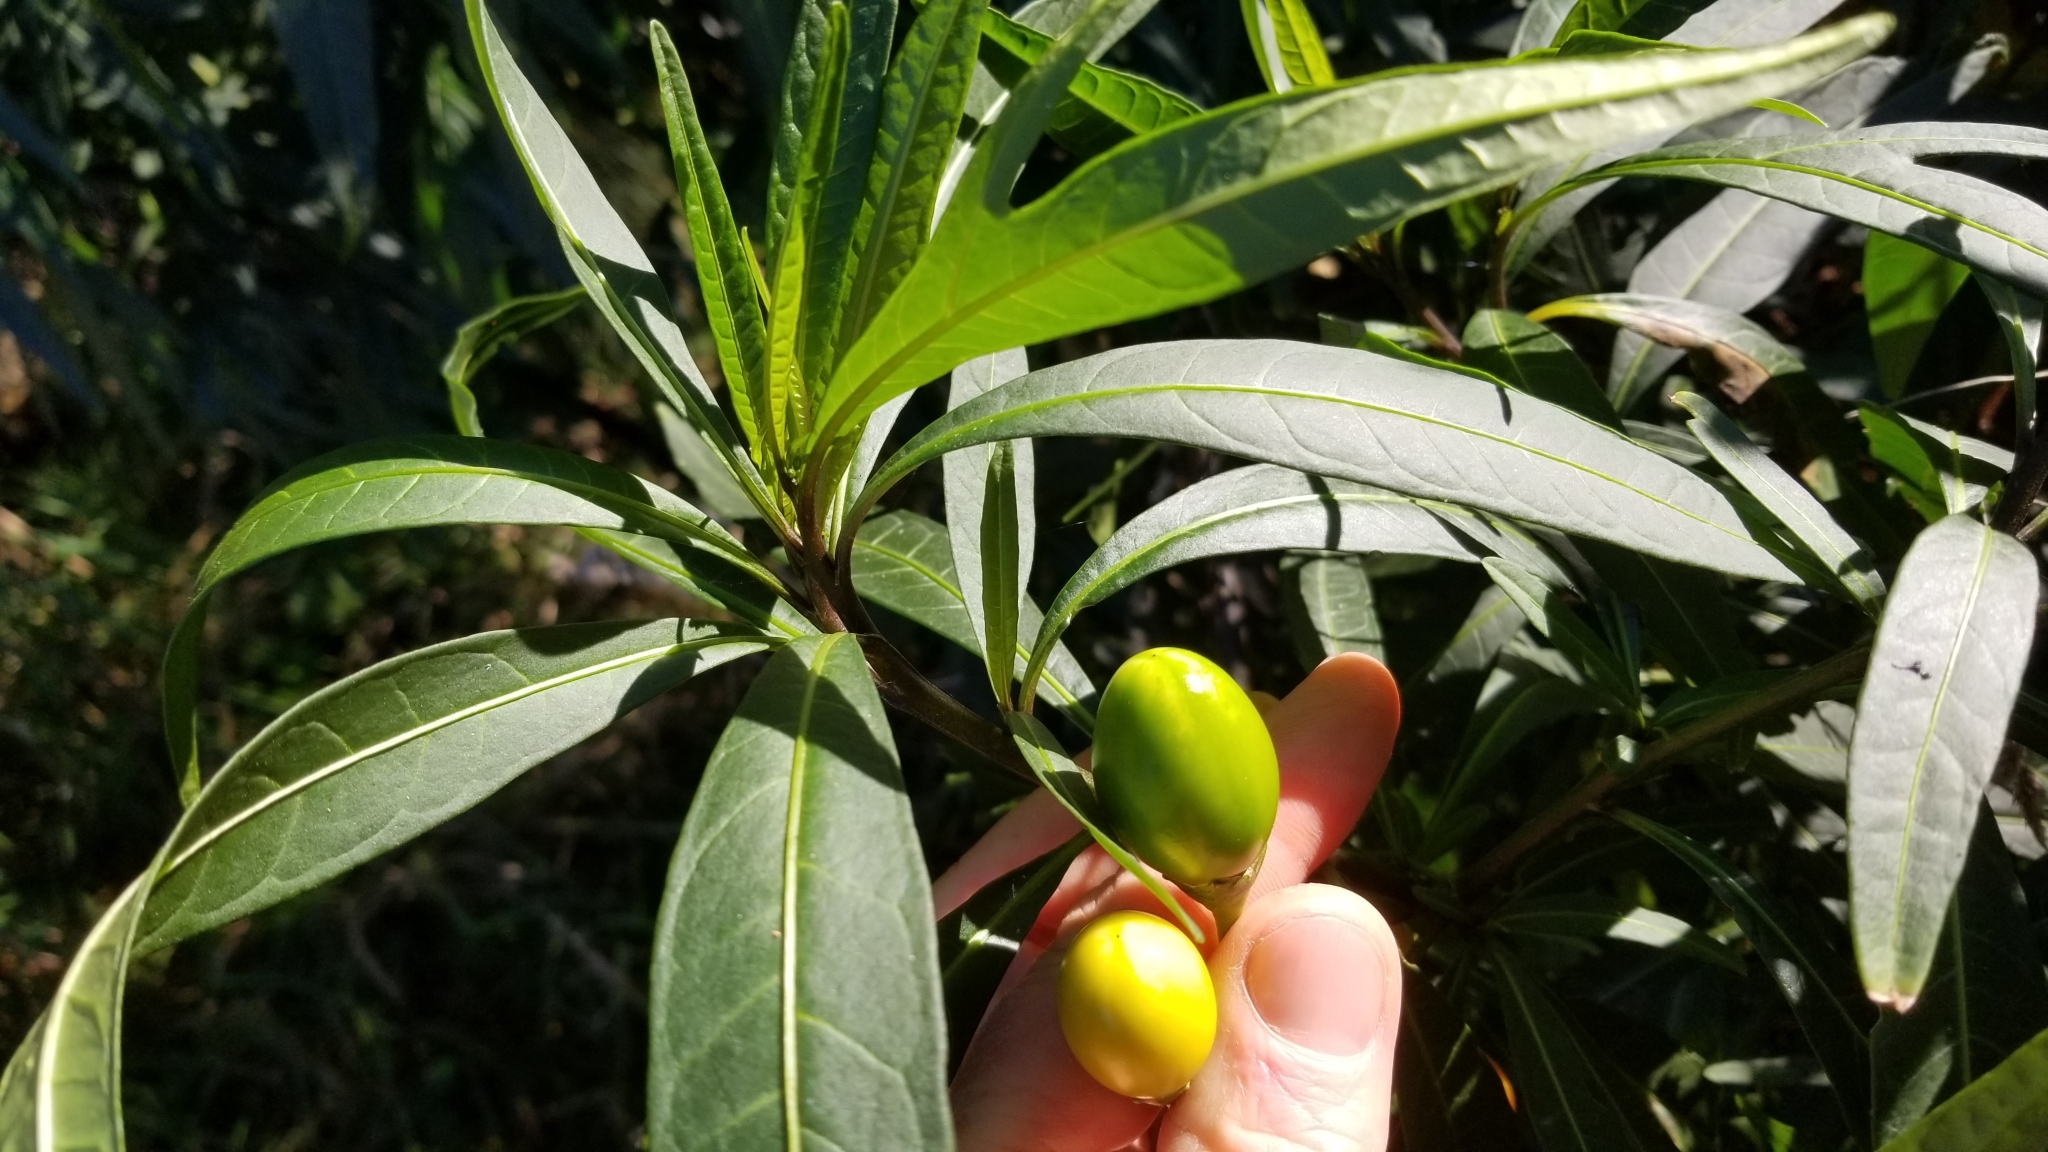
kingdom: Plantae
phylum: Tracheophyta
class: Magnoliopsida
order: Solanales
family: Solanaceae
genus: Solanum
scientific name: Solanum laciniatum
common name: Kangaroo-apple
